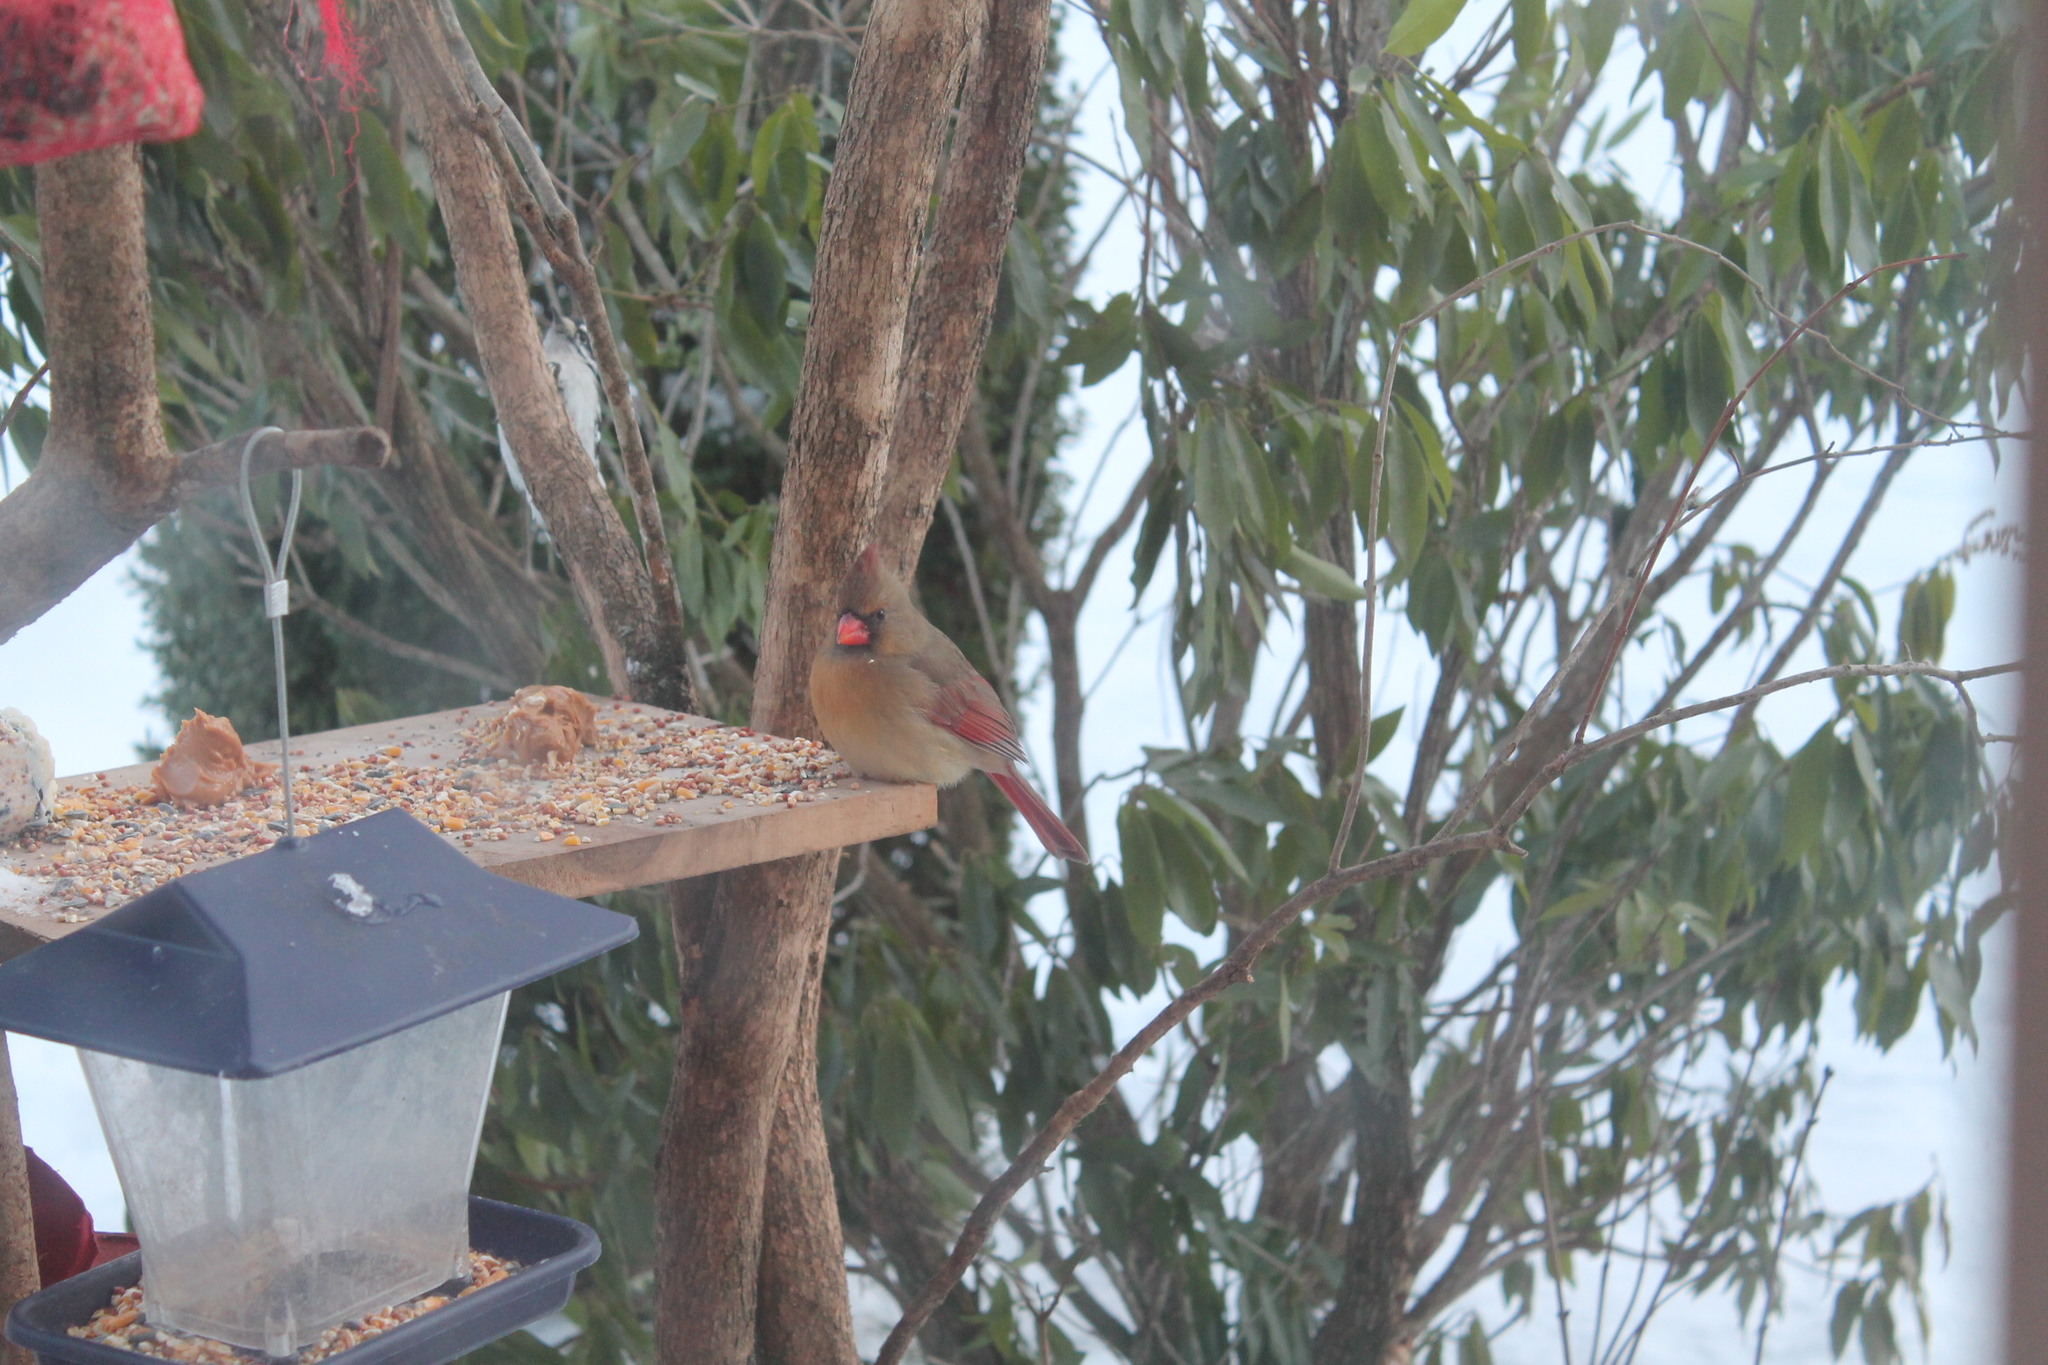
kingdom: Animalia
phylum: Chordata
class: Aves
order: Passeriformes
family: Cardinalidae
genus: Cardinalis
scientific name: Cardinalis cardinalis
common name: Northern cardinal
